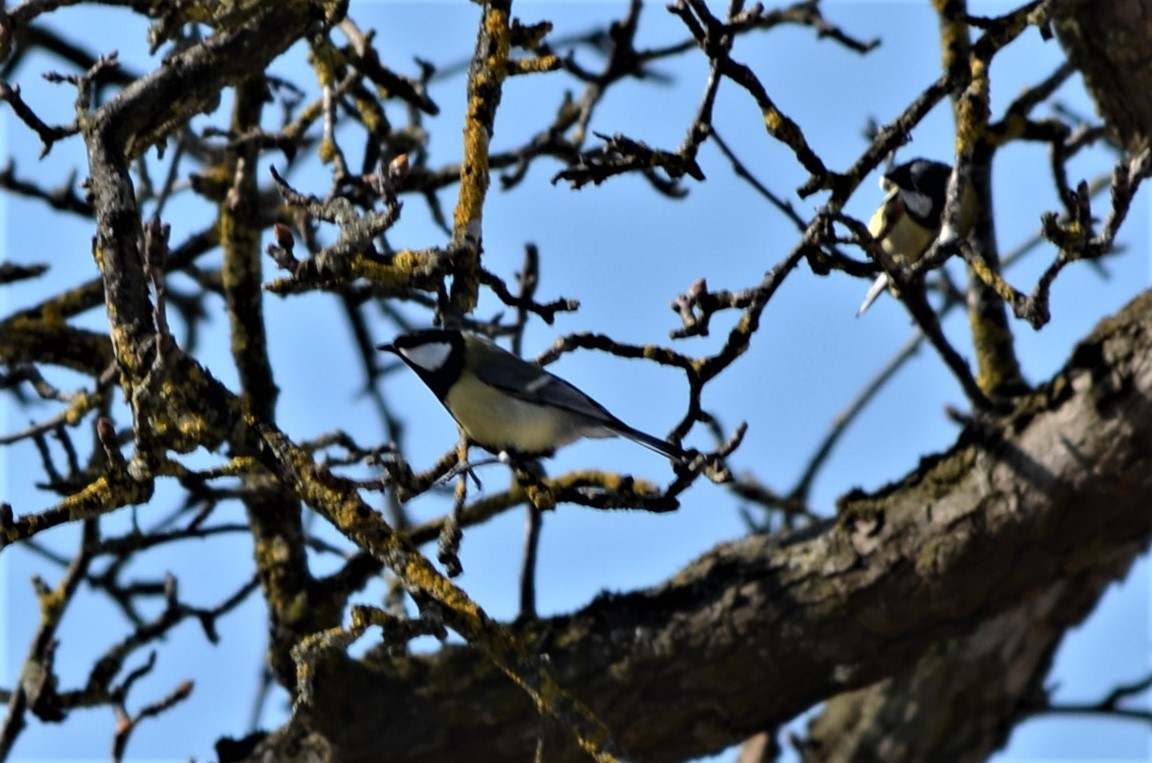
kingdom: Animalia
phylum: Chordata
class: Aves
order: Passeriformes
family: Paridae
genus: Parus
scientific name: Parus major
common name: Great tit
